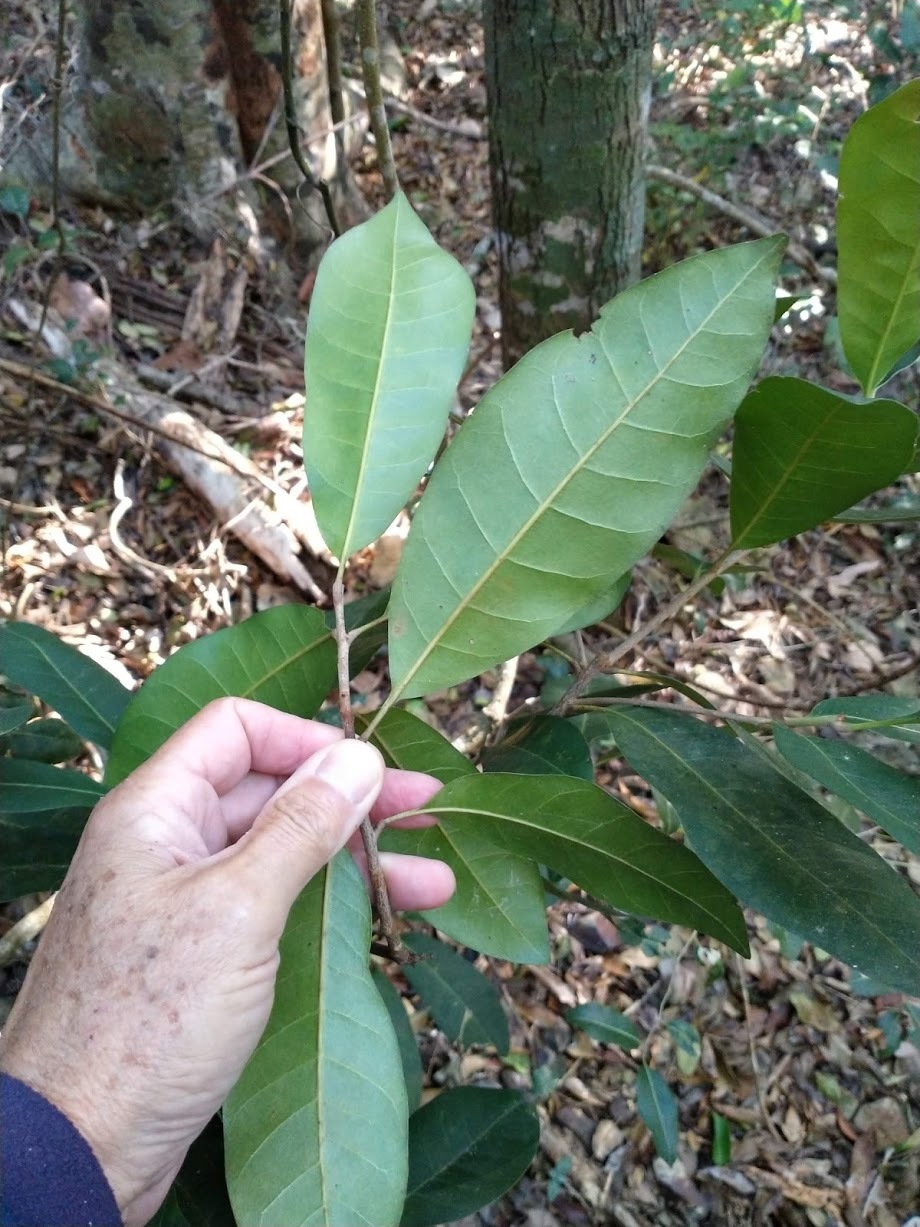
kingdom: Plantae
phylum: Tracheophyta
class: Magnoliopsida
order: Ericales
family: Sapotaceae
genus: Pleioluma
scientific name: Pleioluma queenslandica
